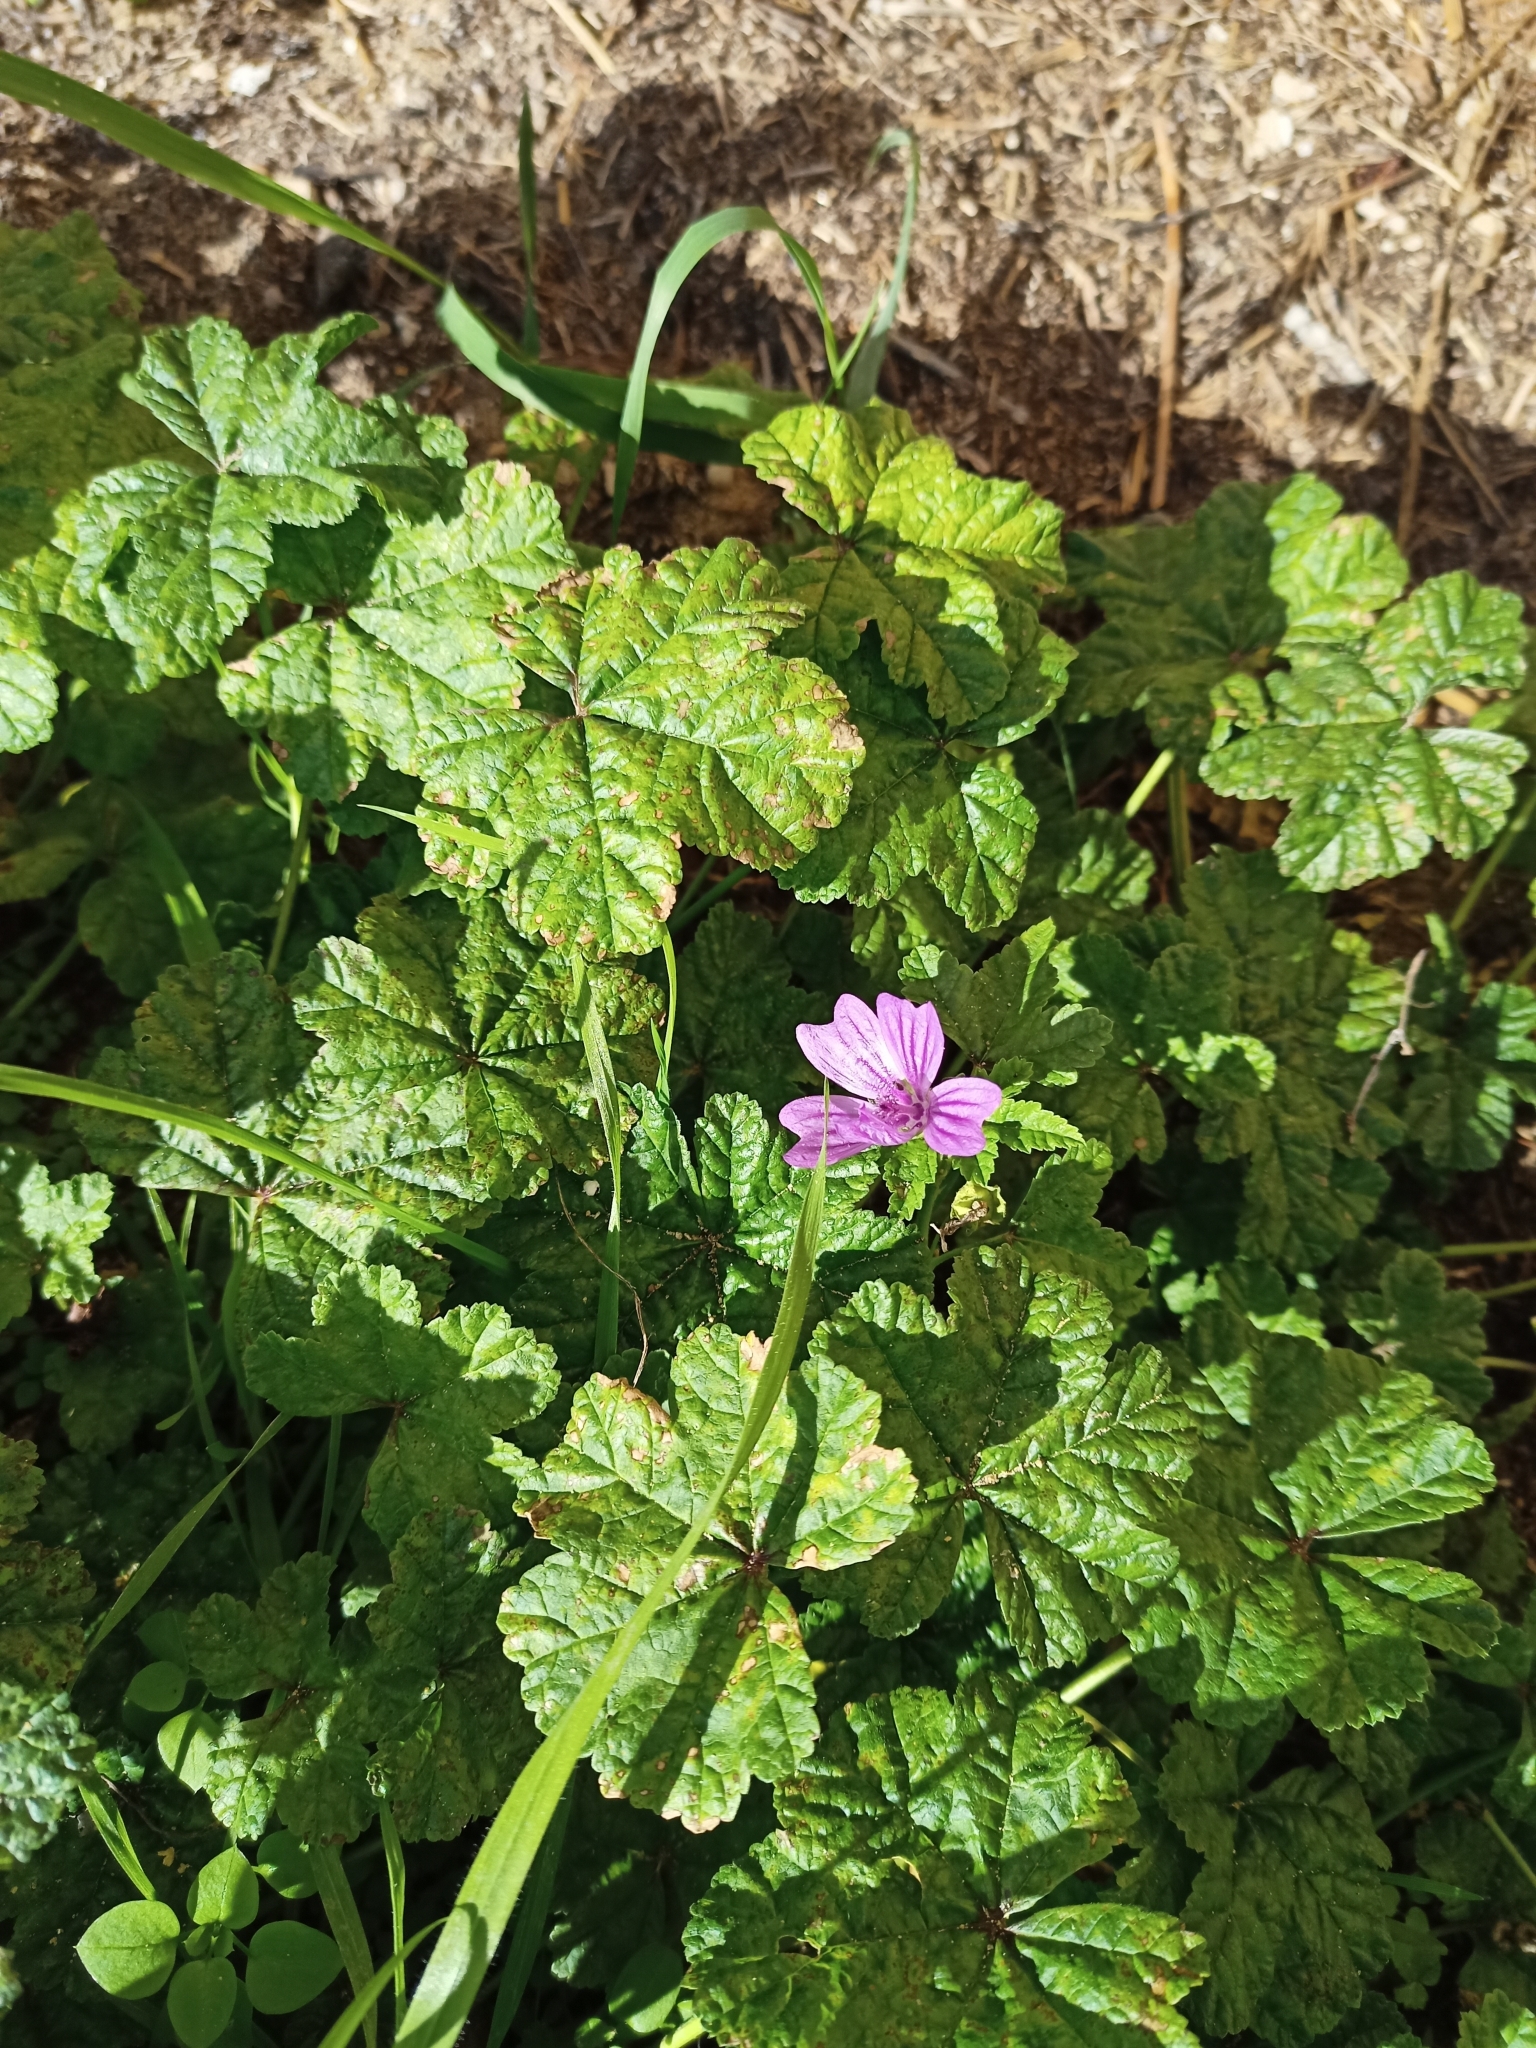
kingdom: Plantae
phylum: Tracheophyta
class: Magnoliopsida
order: Malvales
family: Malvaceae
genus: Malva
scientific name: Malva sylvestris
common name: Common mallow
